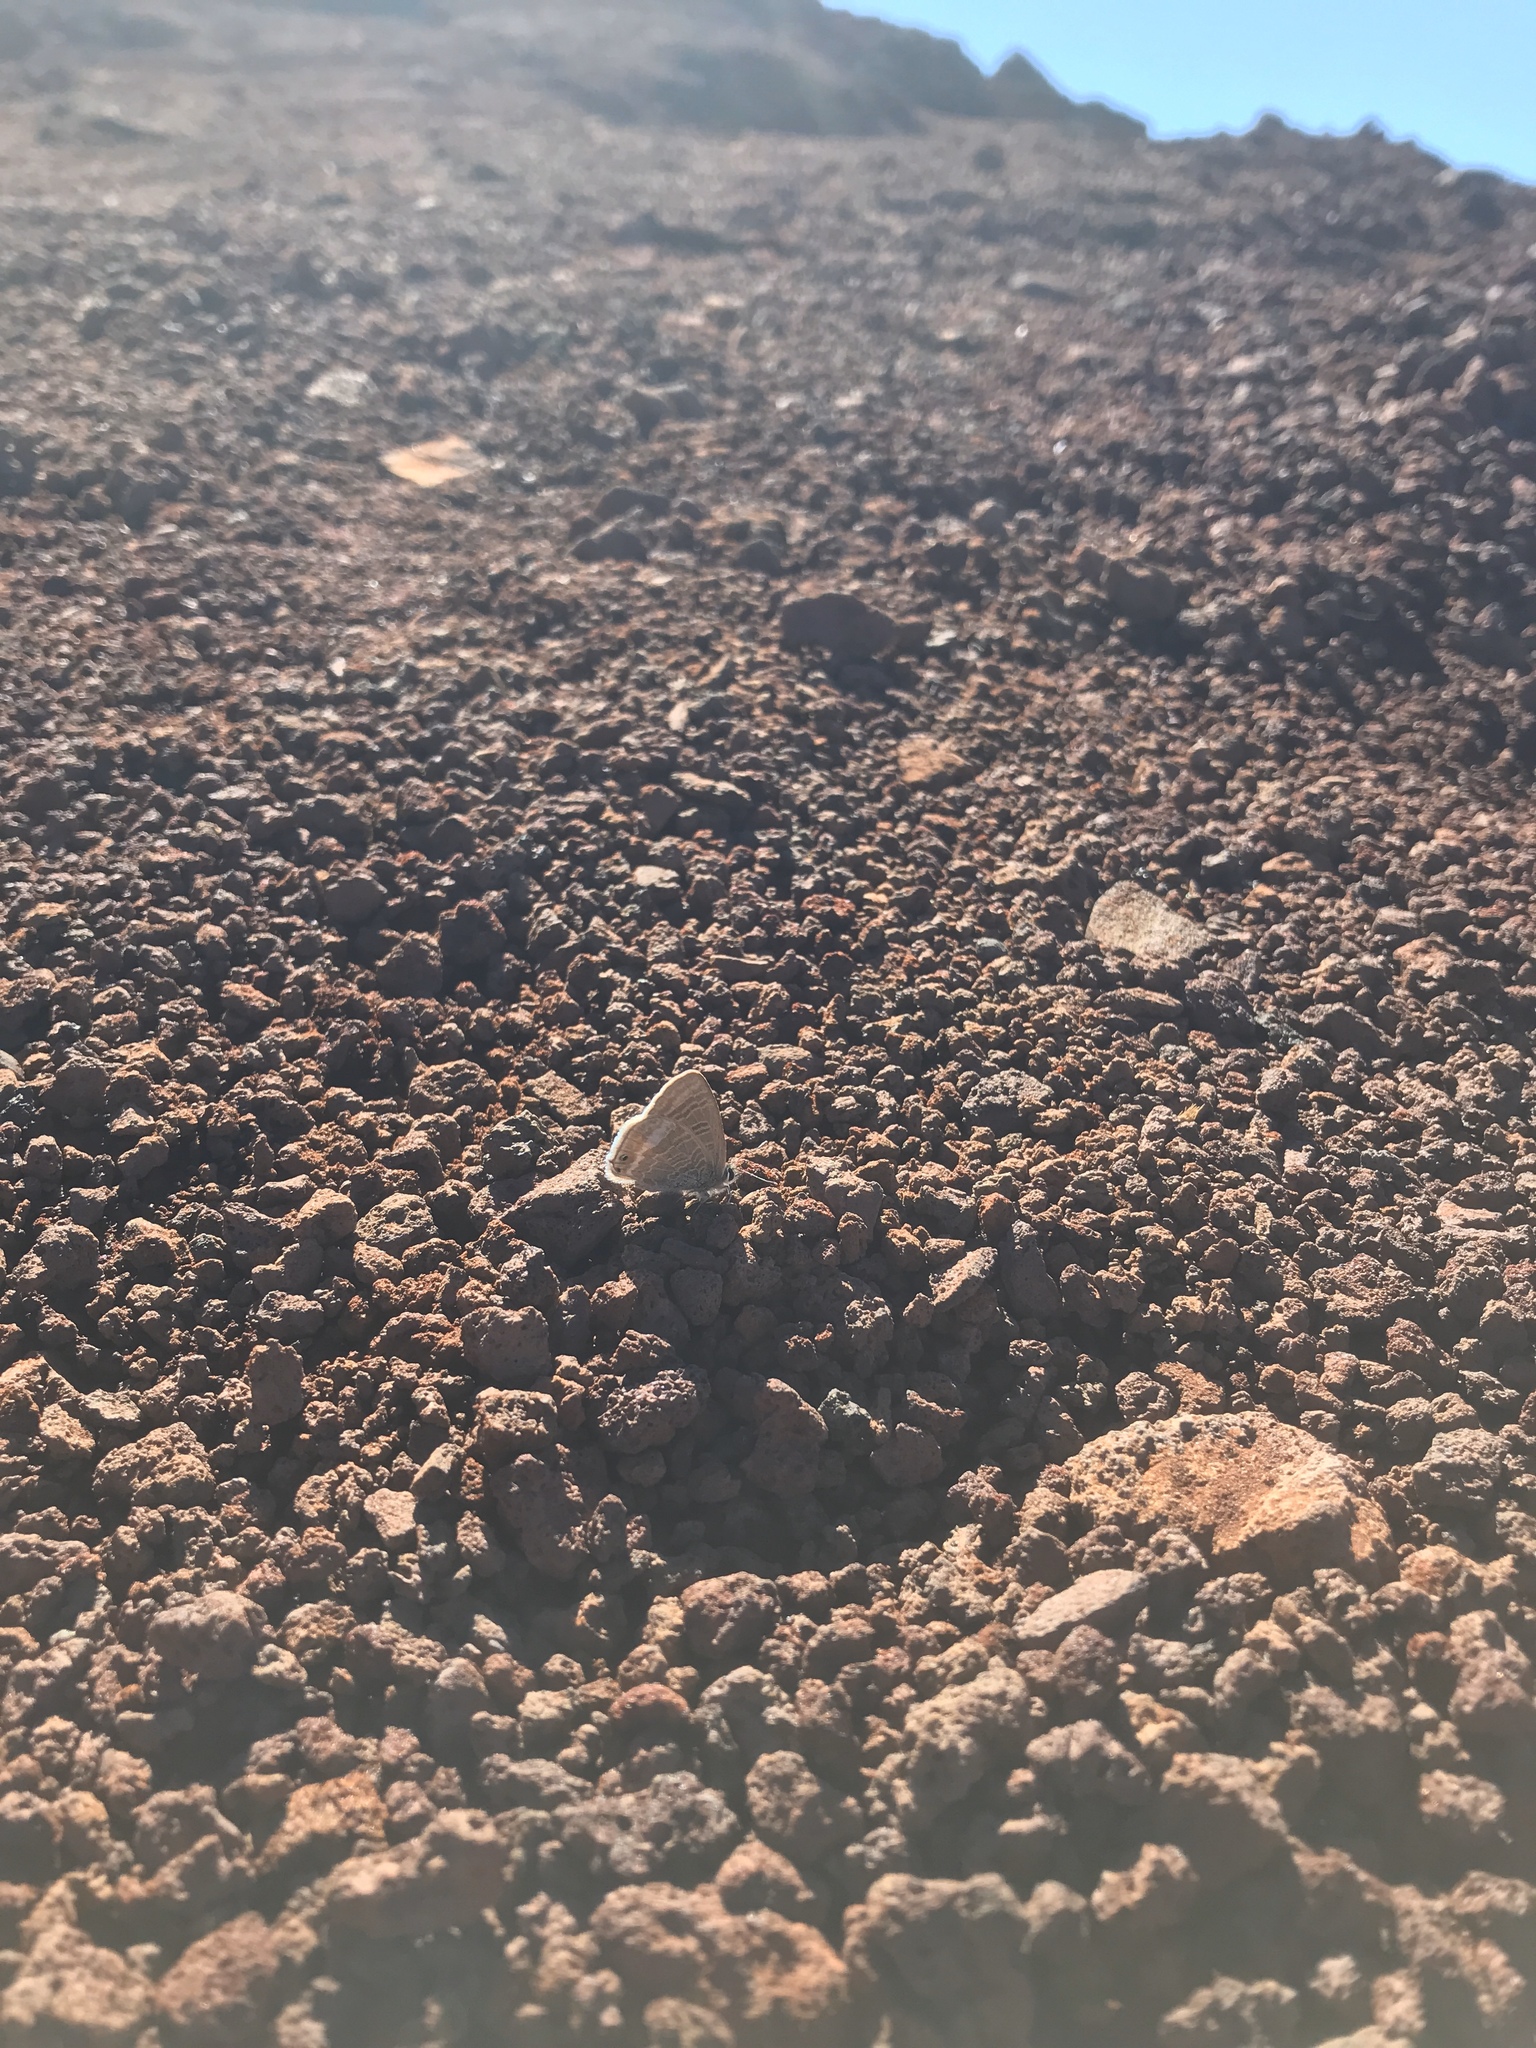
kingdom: Animalia
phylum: Arthropoda
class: Insecta
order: Lepidoptera
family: Lycaenidae
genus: Lampides
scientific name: Lampides boeticus
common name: Long-tailed blue
